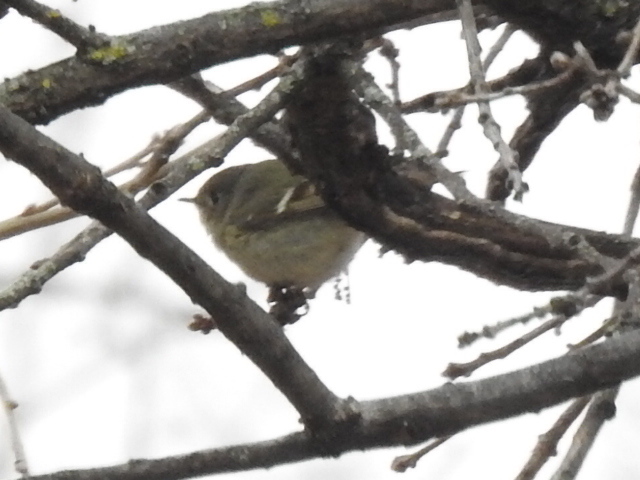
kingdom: Animalia
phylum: Chordata
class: Aves
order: Passeriformes
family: Regulidae
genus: Regulus
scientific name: Regulus calendula
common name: Ruby-crowned kinglet
